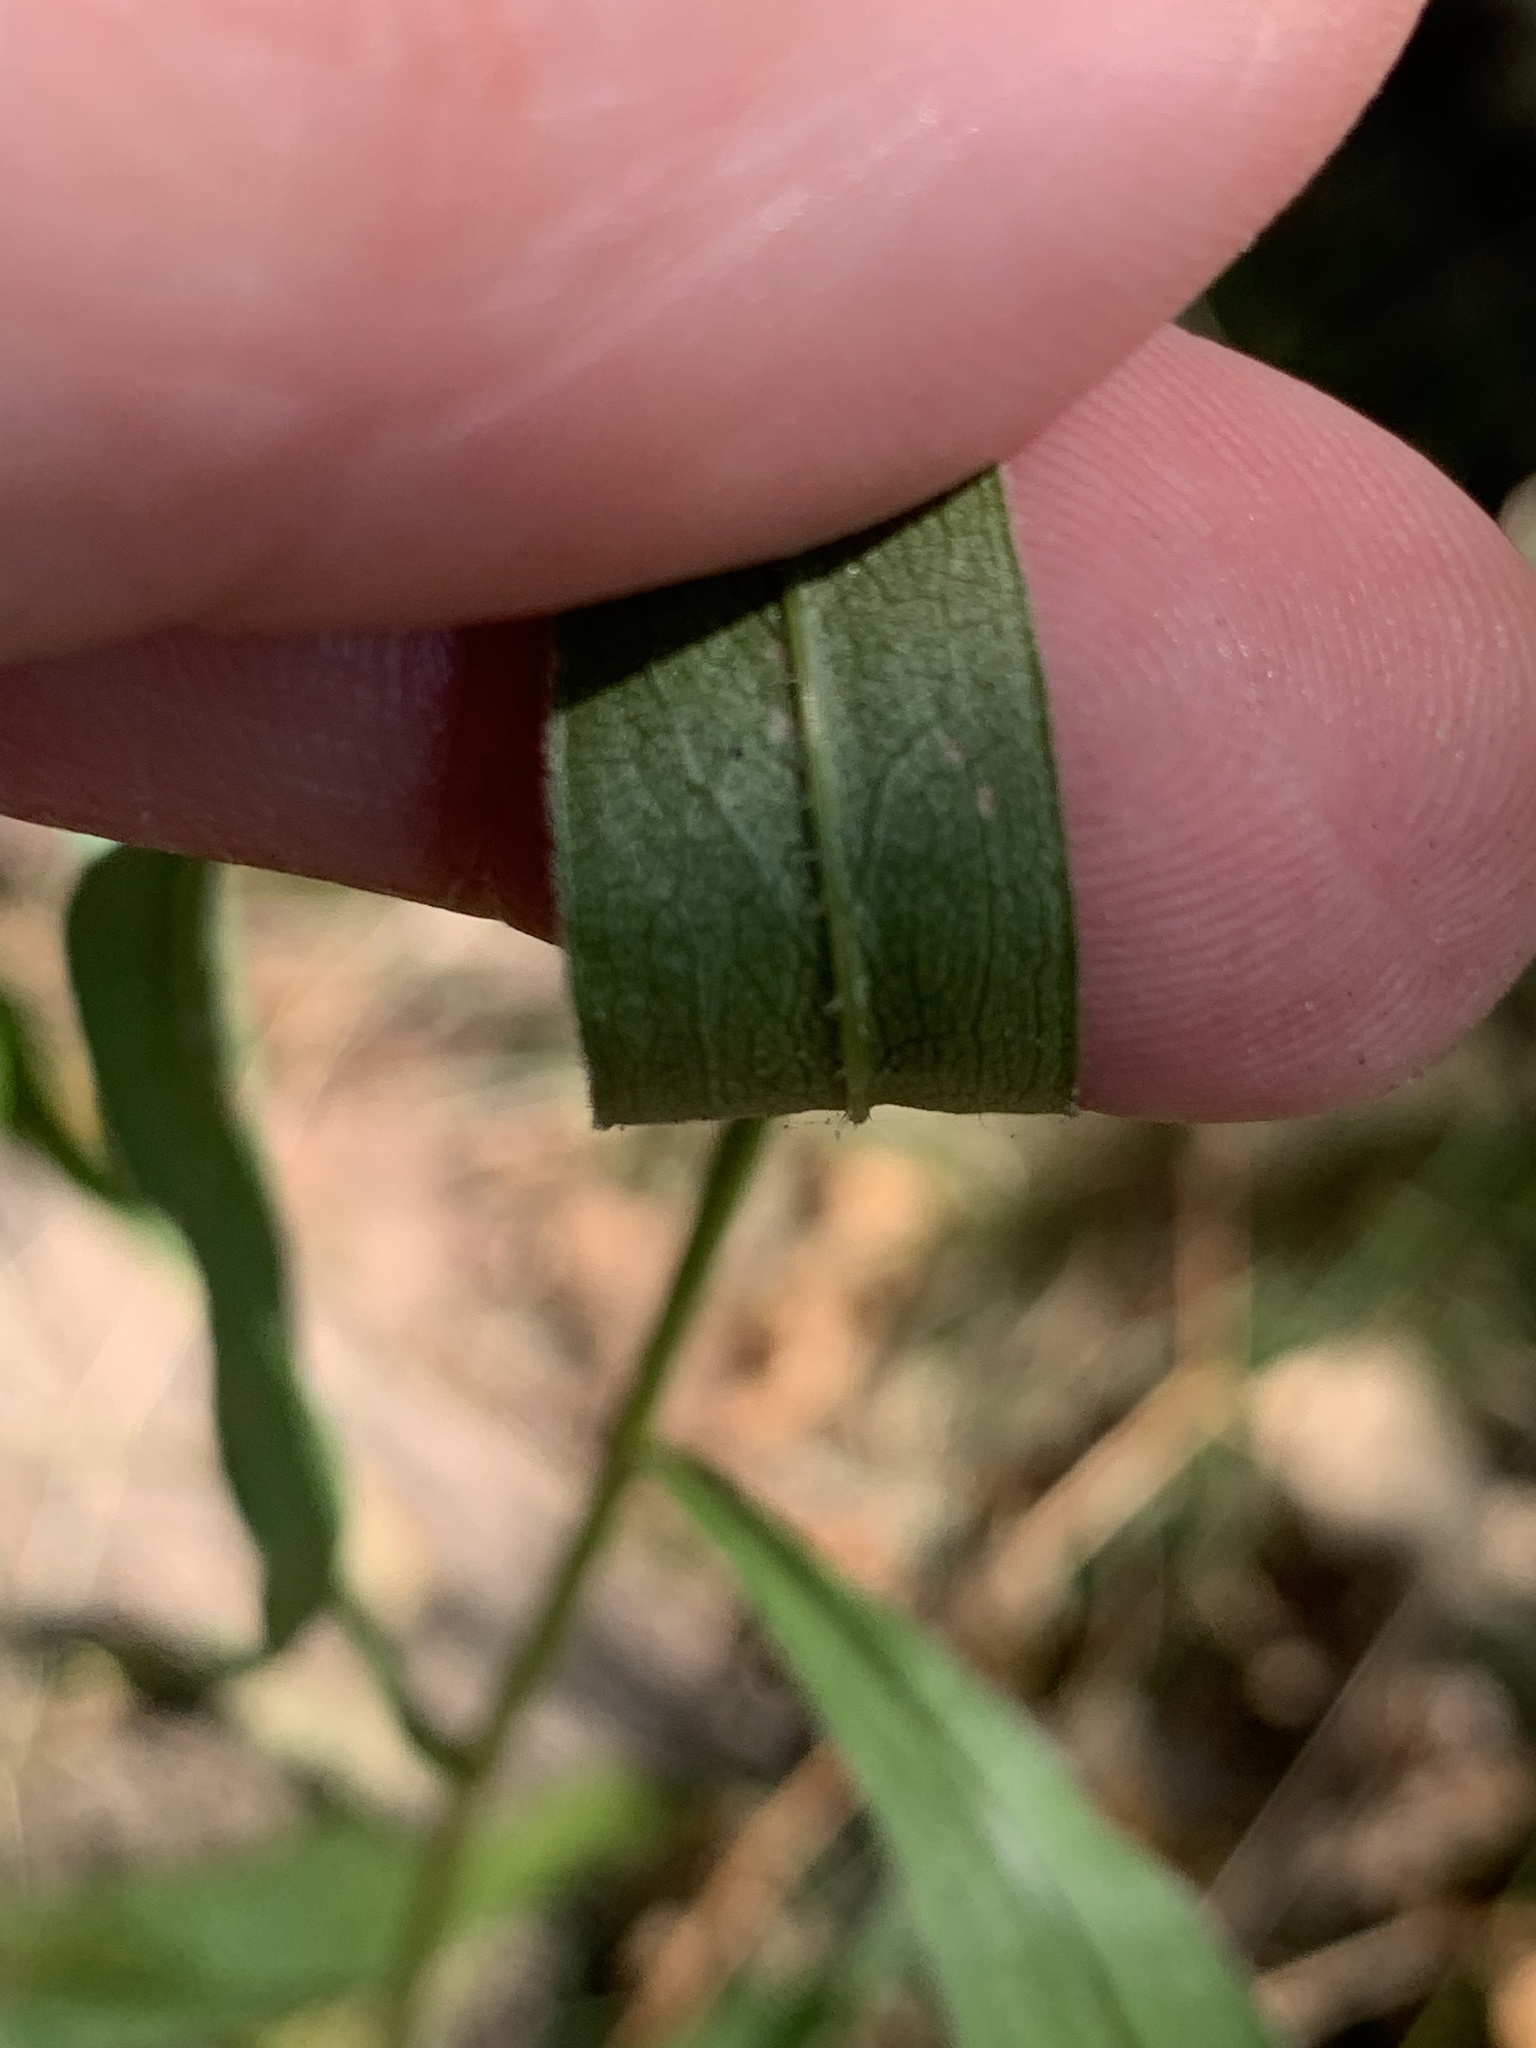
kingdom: Plantae
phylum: Tracheophyta
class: Magnoliopsida
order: Asterales
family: Asteraceae
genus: Solidago
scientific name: Solidago juncea
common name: Early goldenrod
